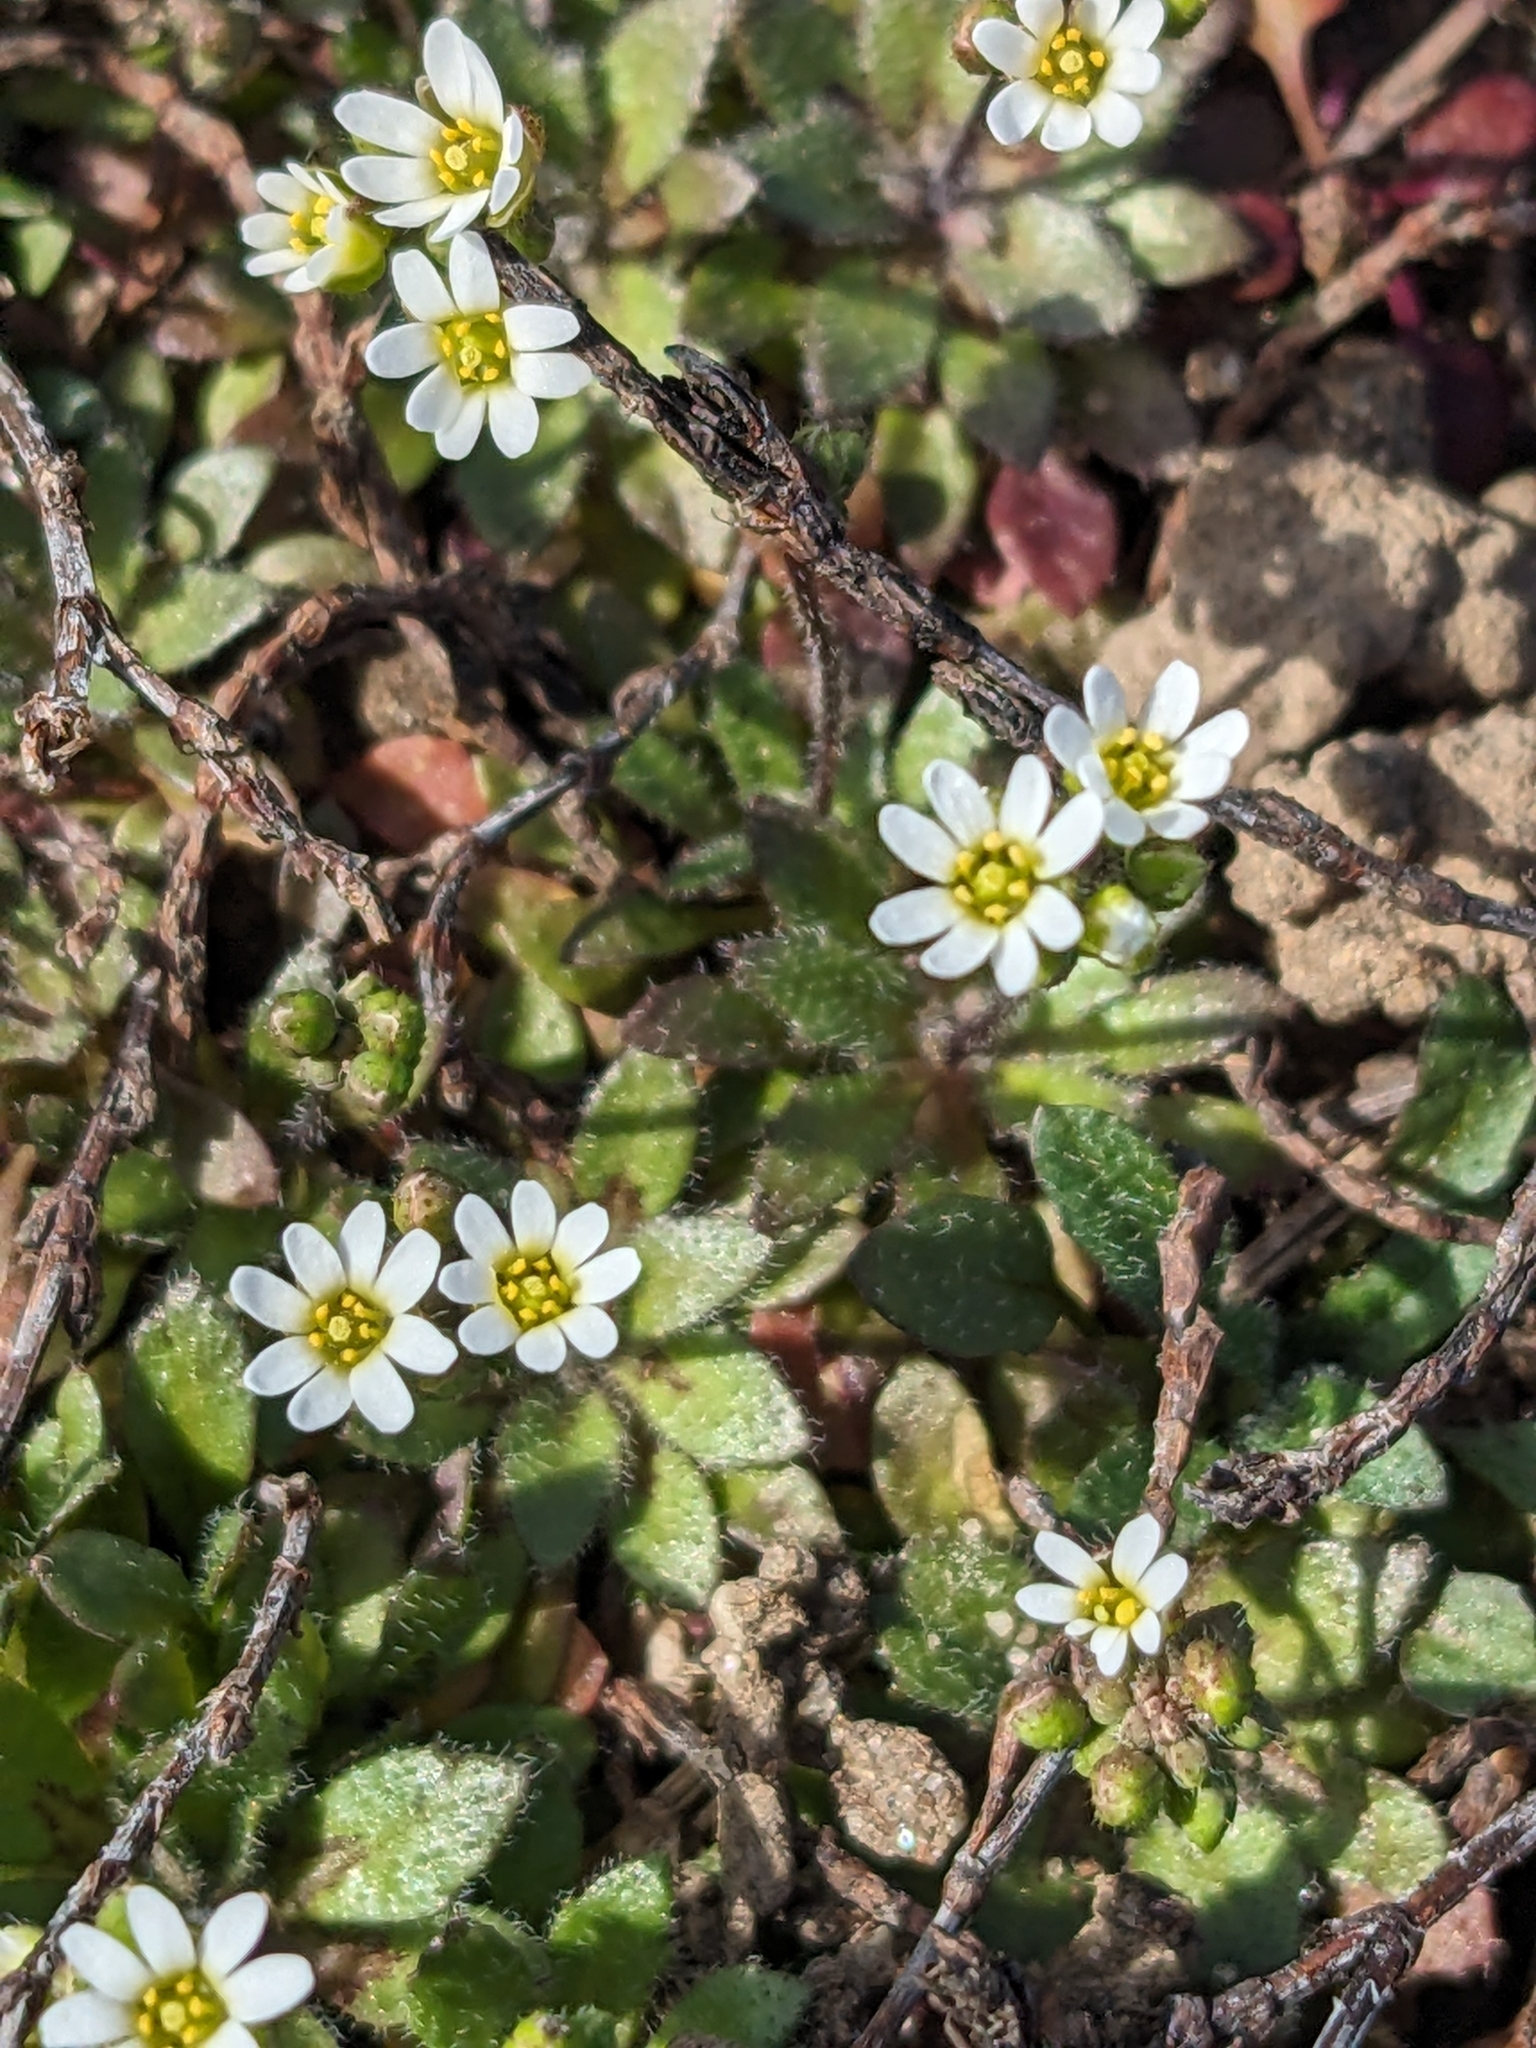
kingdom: Plantae
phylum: Tracheophyta
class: Magnoliopsida
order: Brassicales
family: Brassicaceae
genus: Draba
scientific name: Draba verna
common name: Spring draba
